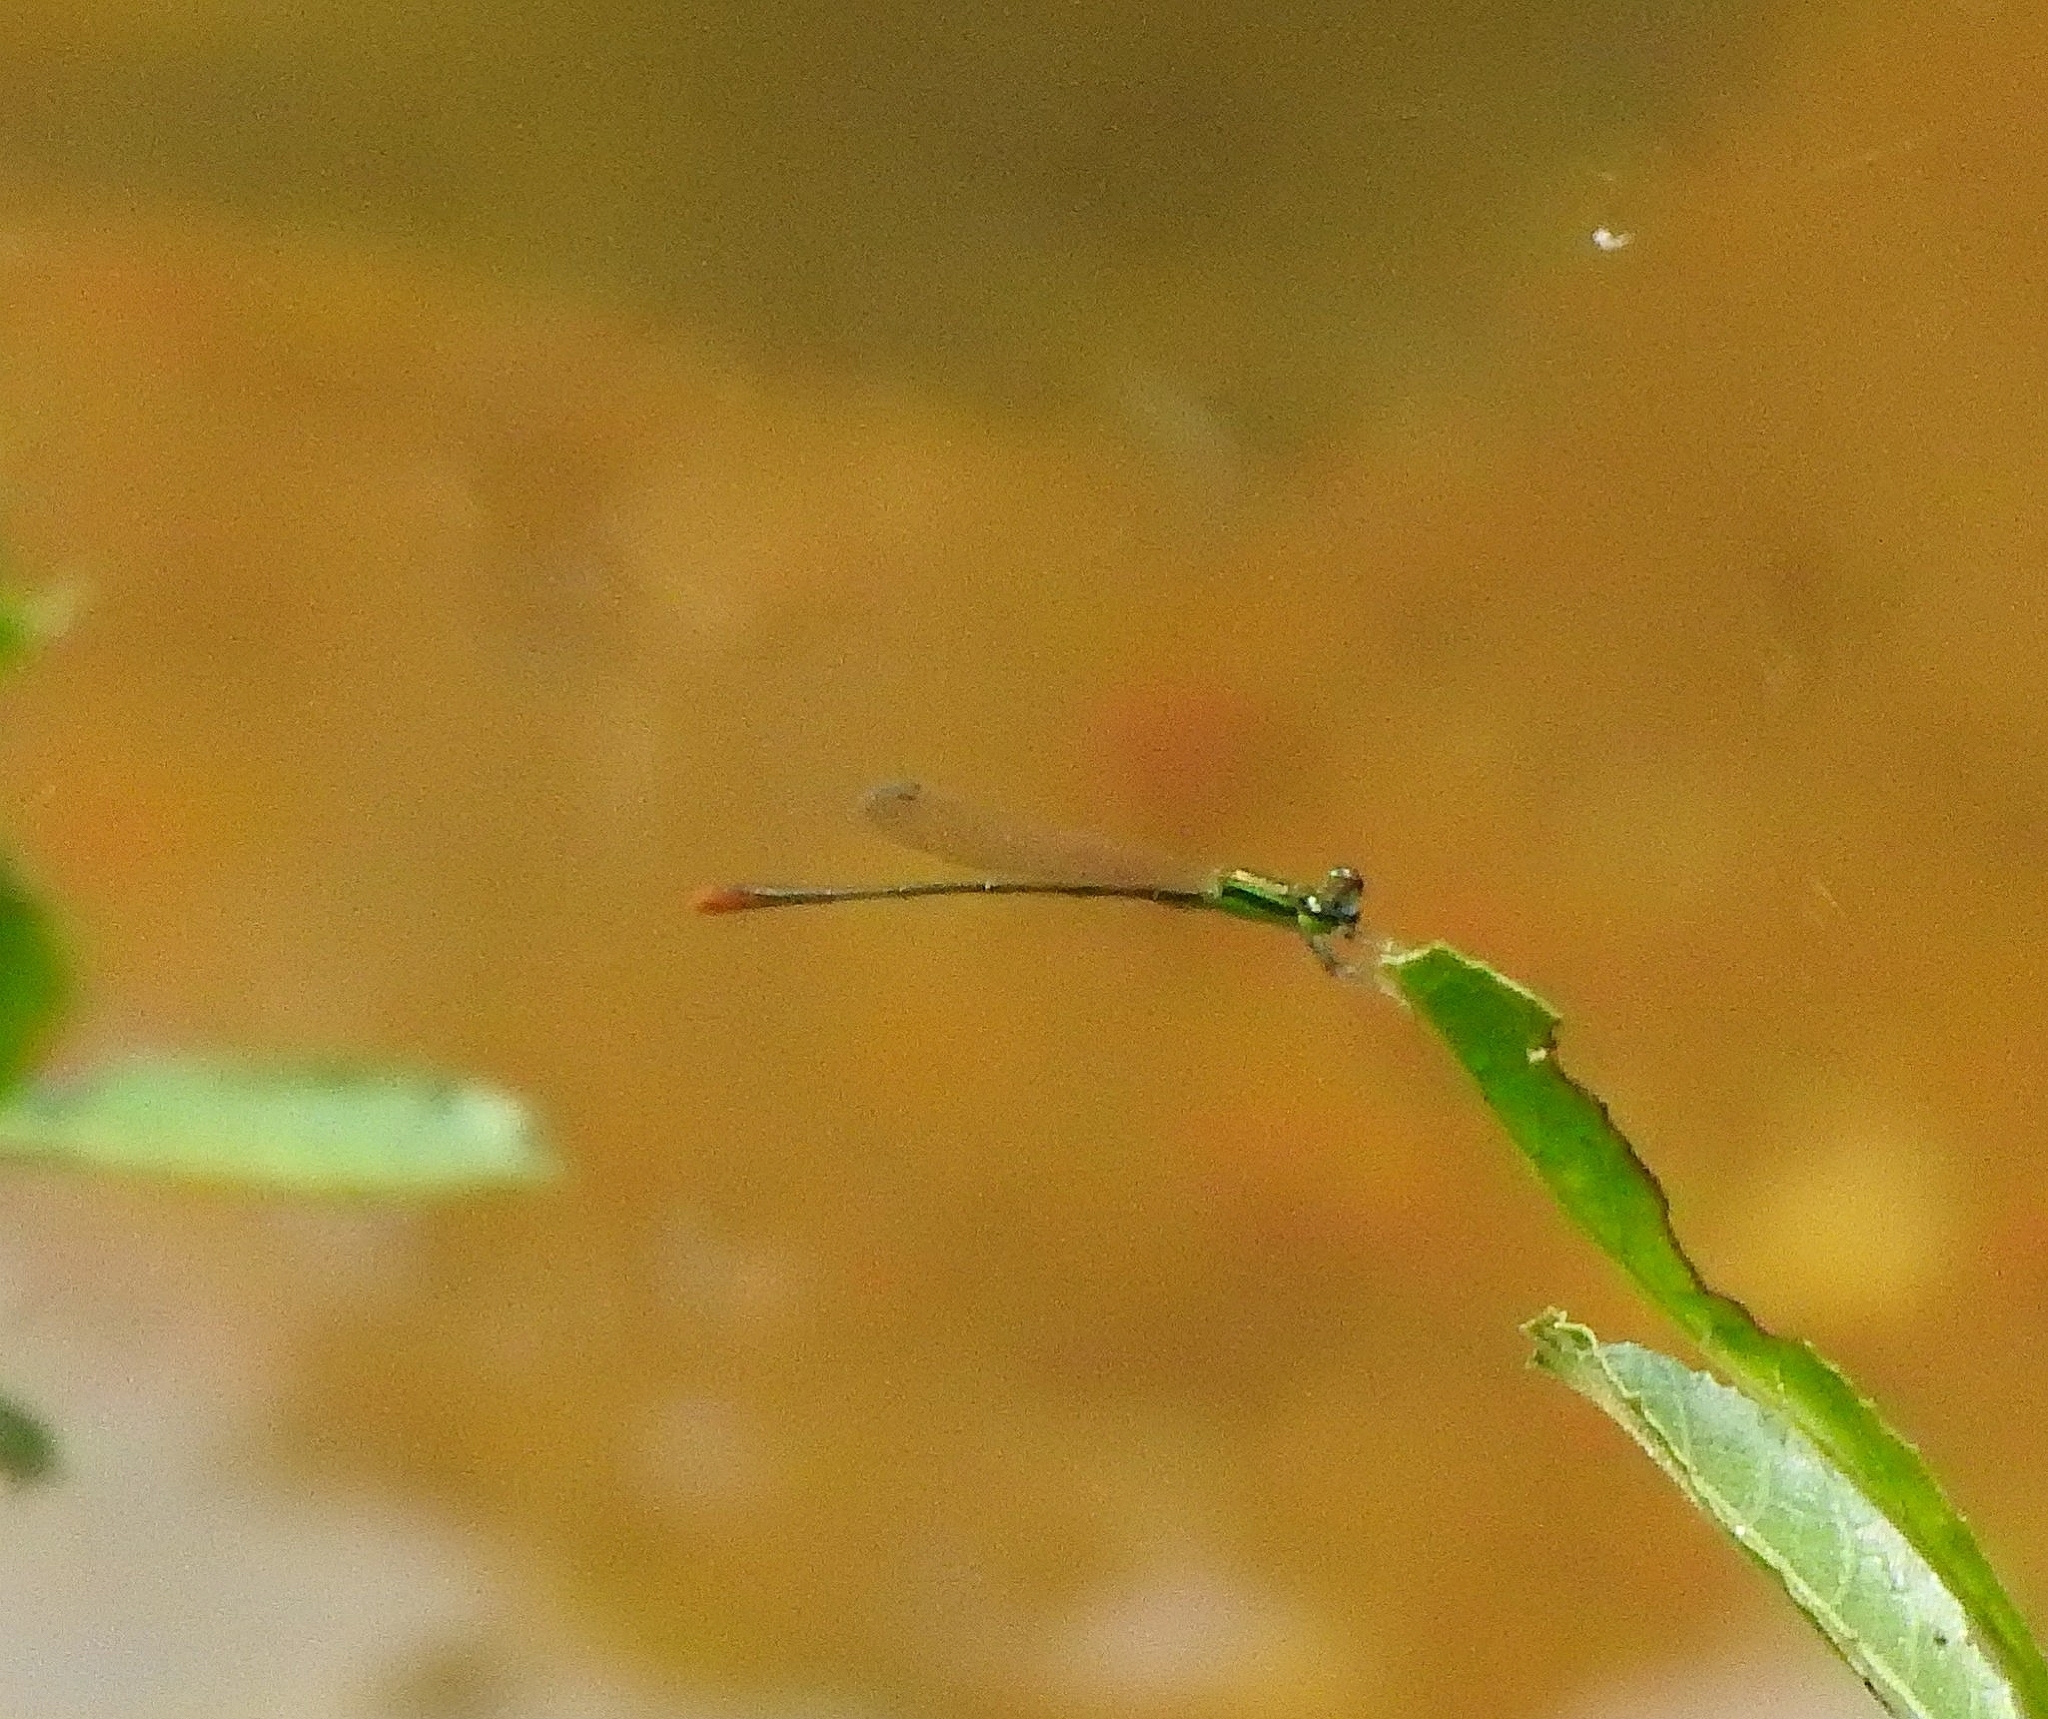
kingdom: Animalia
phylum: Arthropoda
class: Insecta
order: Odonata
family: Coenagrionidae
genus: Agriocnemis
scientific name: Agriocnemis pygmaea
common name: Pygmy wisp
